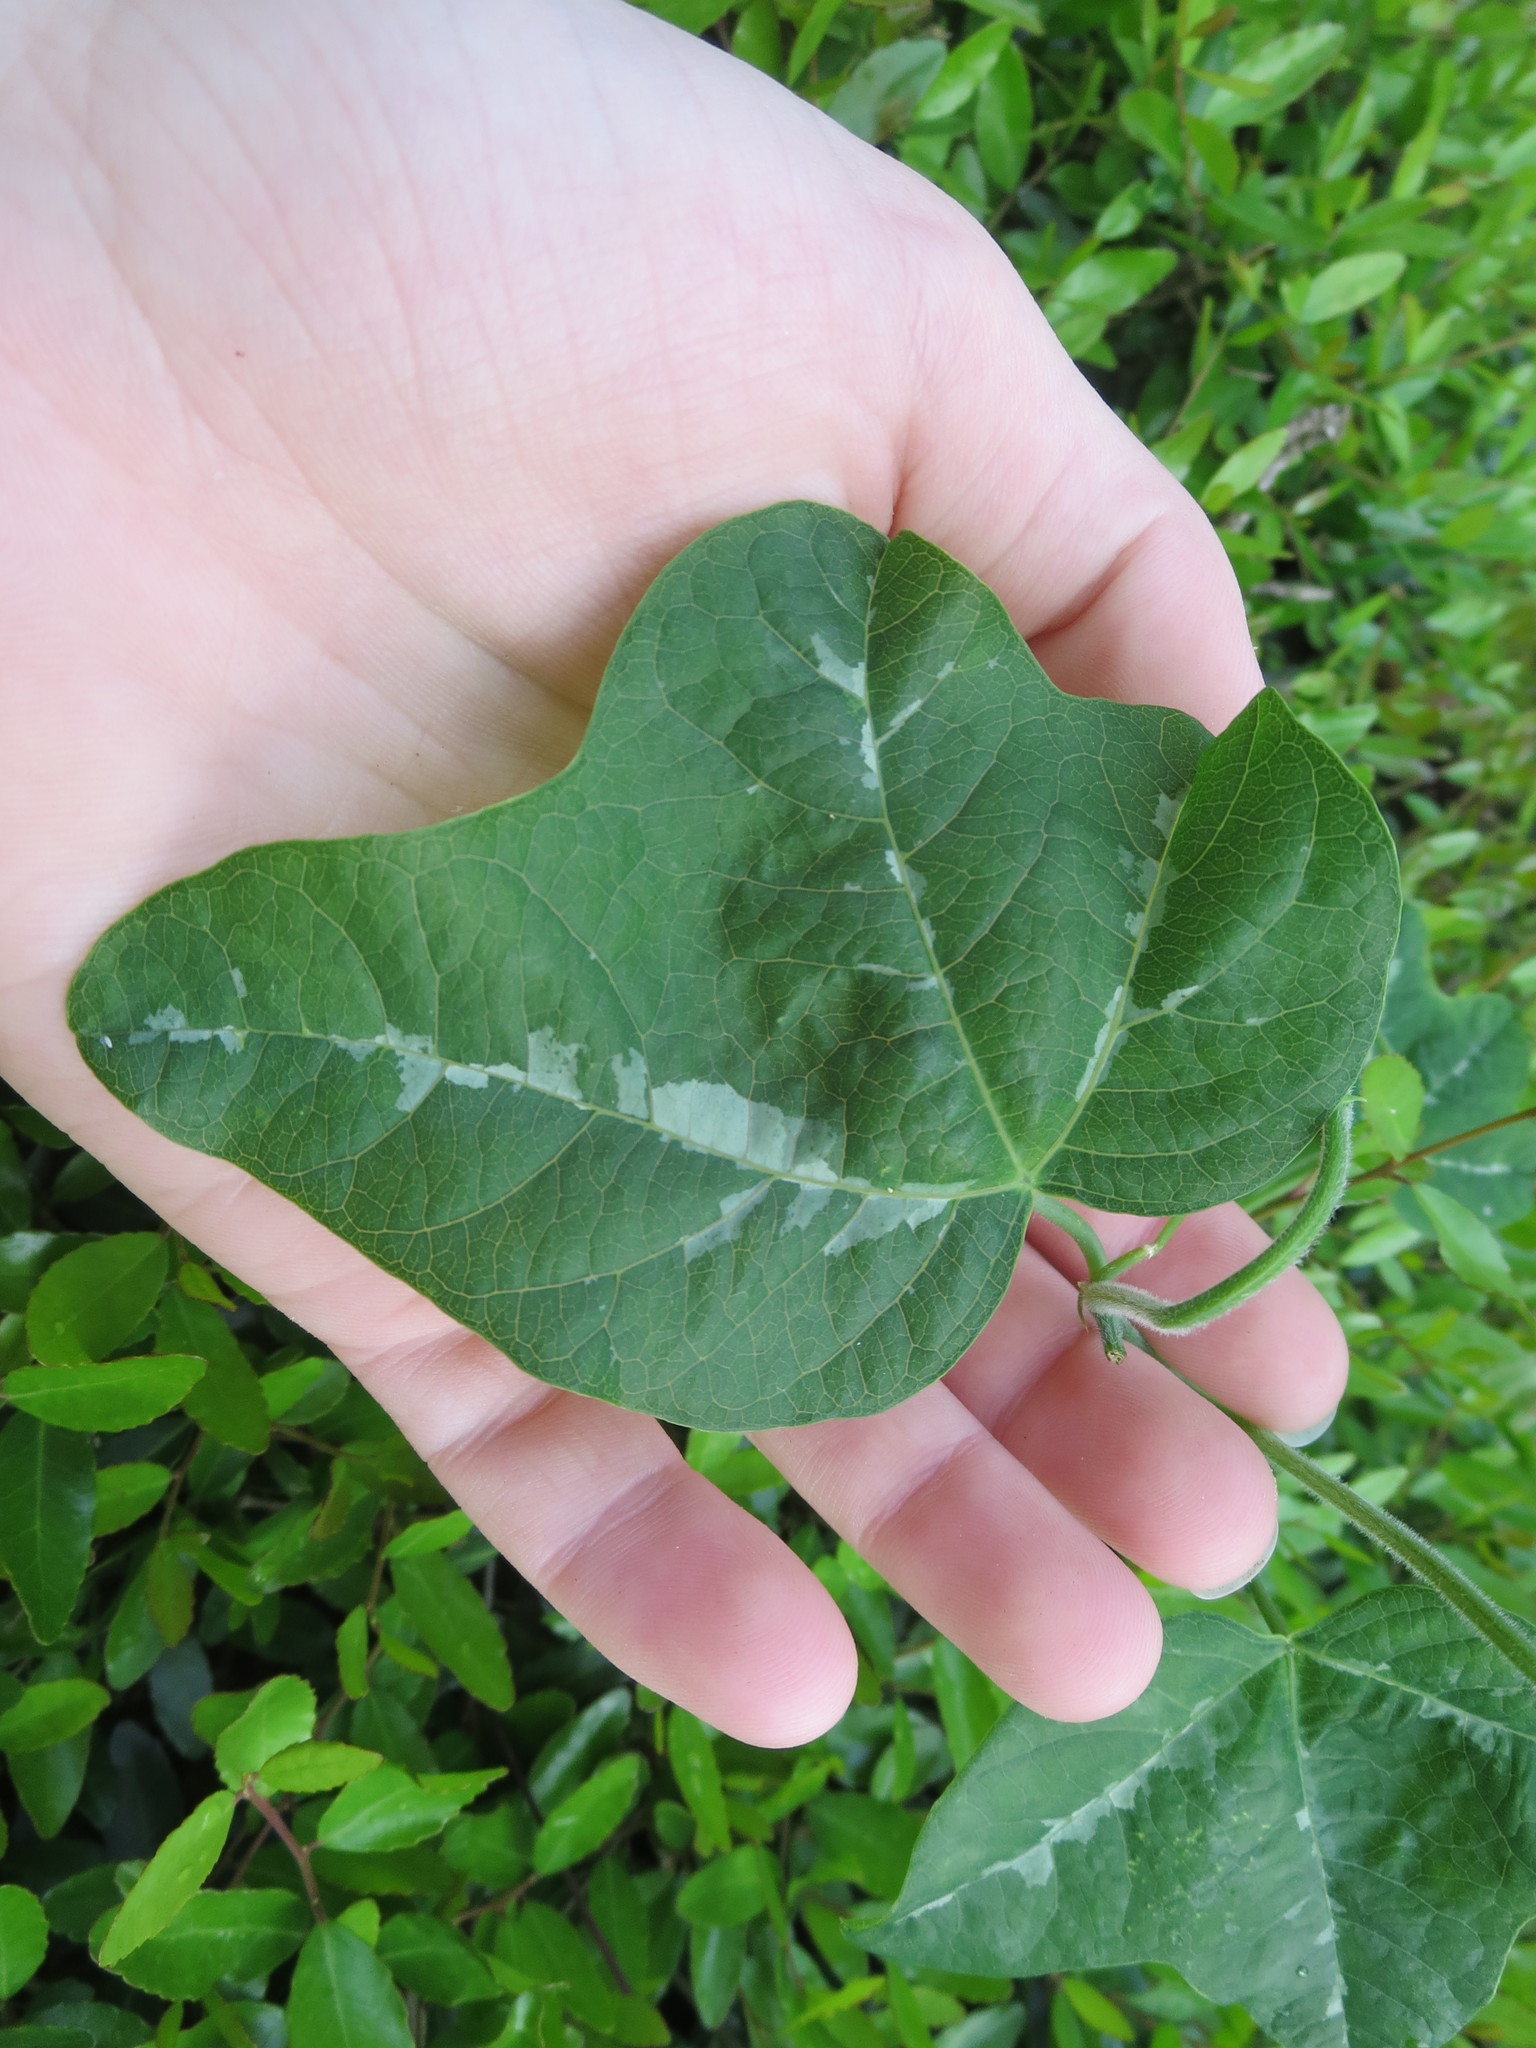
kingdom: Plantae
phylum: Tracheophyta
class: Magnoliopsida
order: Malpighiales
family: Passifloraceae
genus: Passiflora
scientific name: Passiflora lutea
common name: Yellow passionflower
